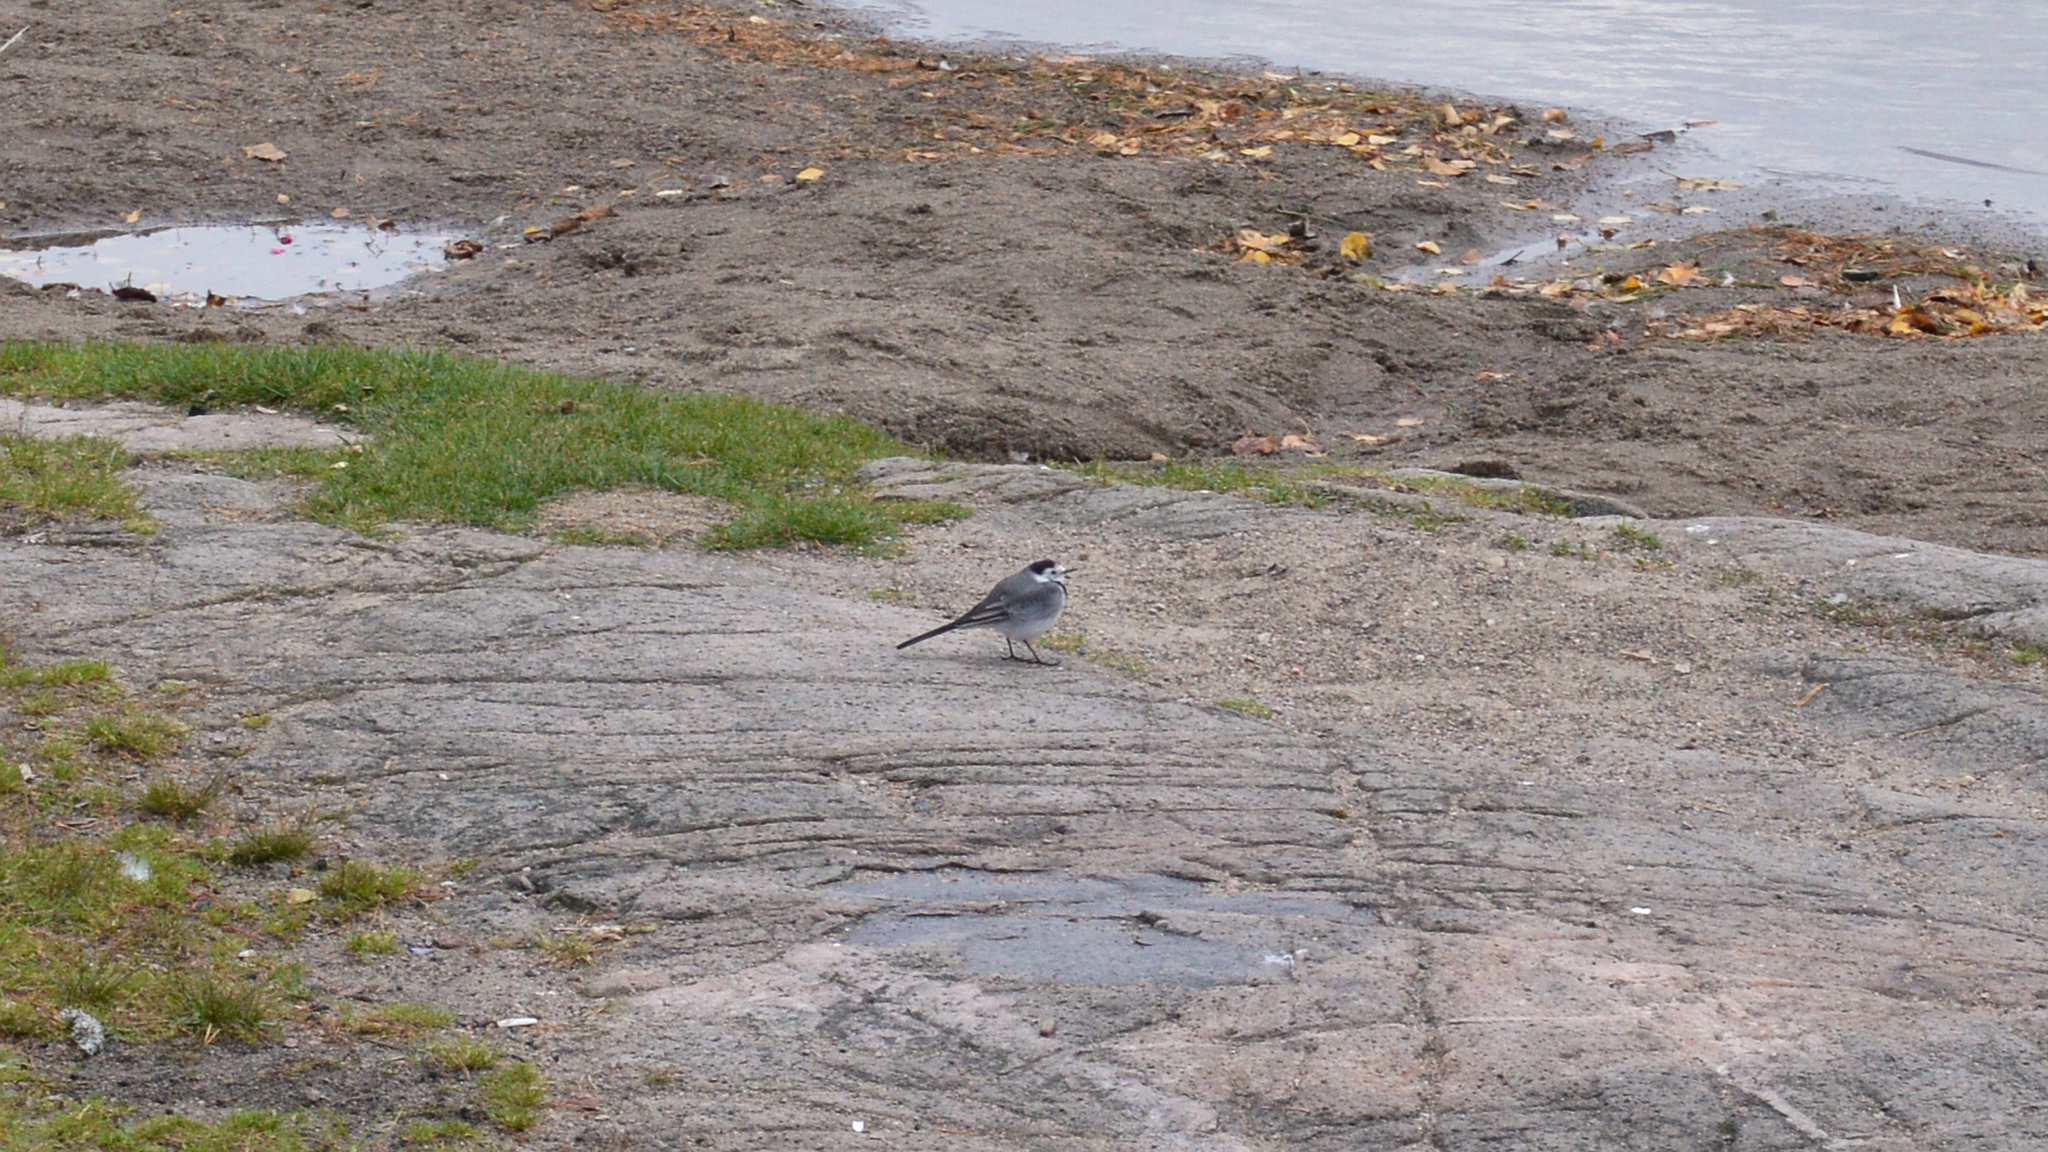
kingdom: Animalia
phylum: Chordata
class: Aves
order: Passeriformes
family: Motacillidae
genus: Motacilla
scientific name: Motacilla alba
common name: White wagtail
